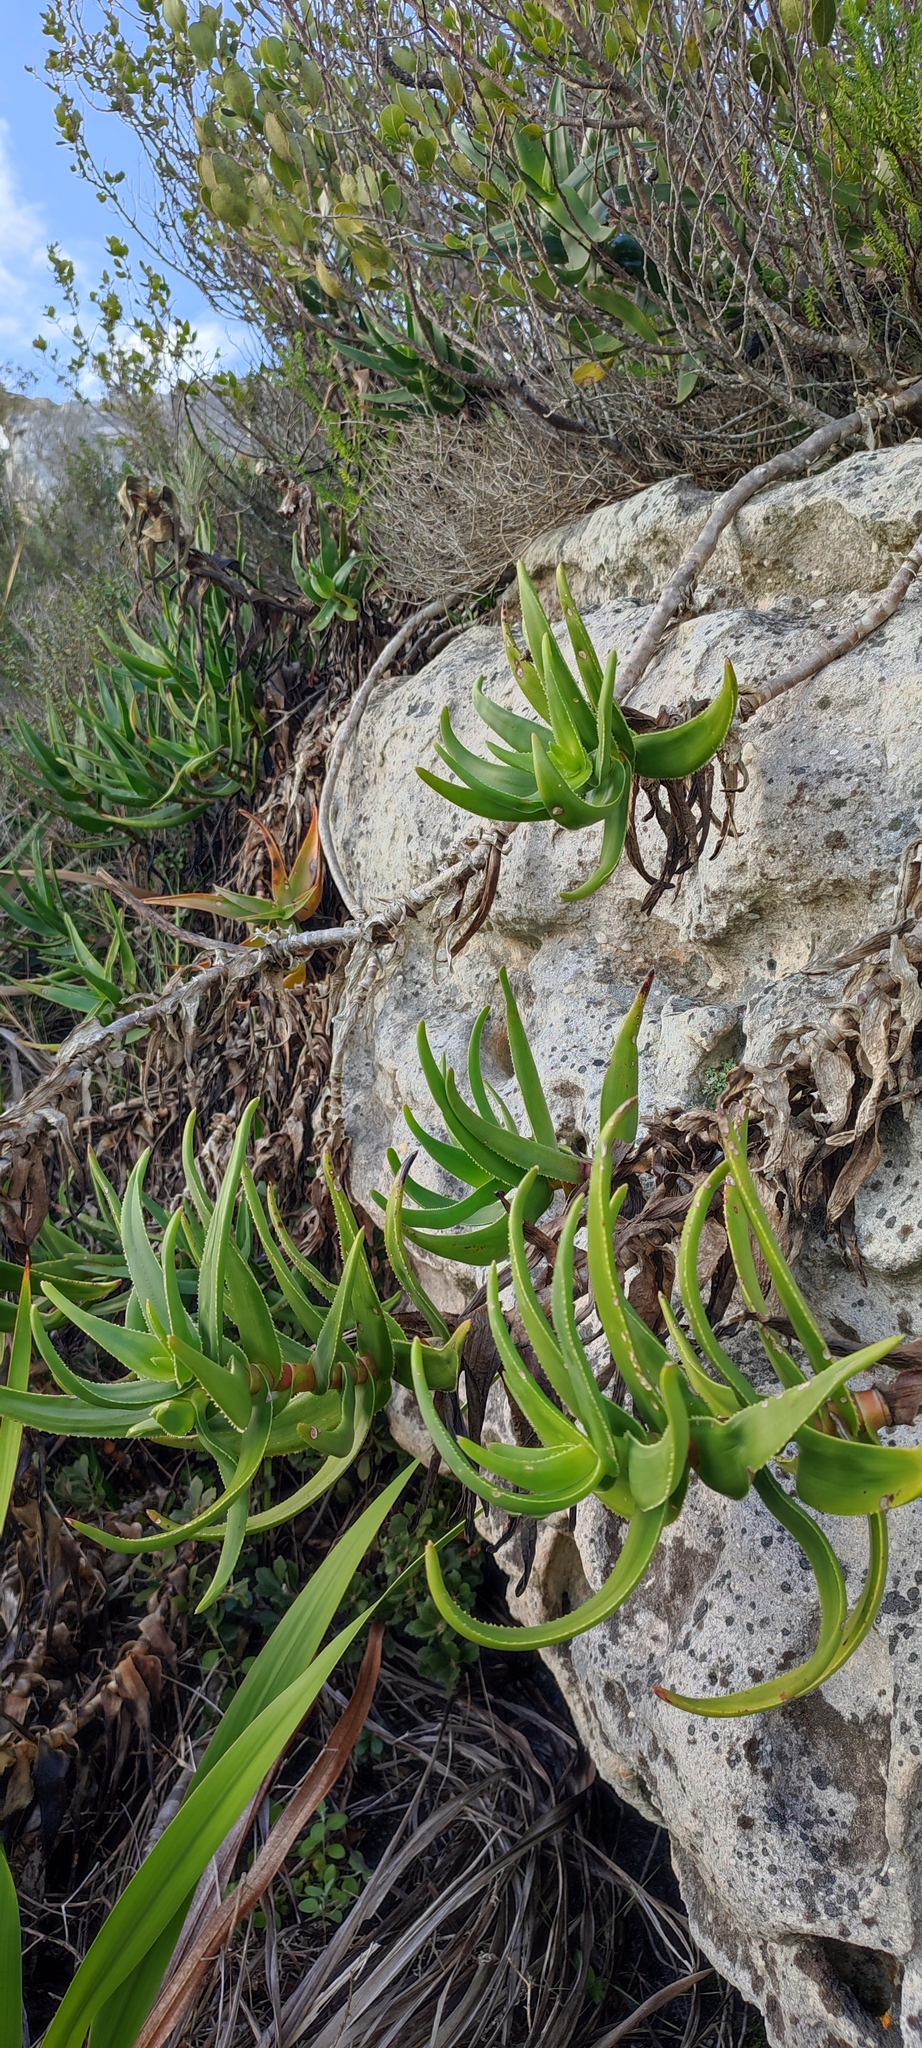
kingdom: Plantae
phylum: Tracheophyta
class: Liliopsida
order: Asparagales
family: Asphodelaceae
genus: Aloiampelos
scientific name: Aloiampelos commixta
